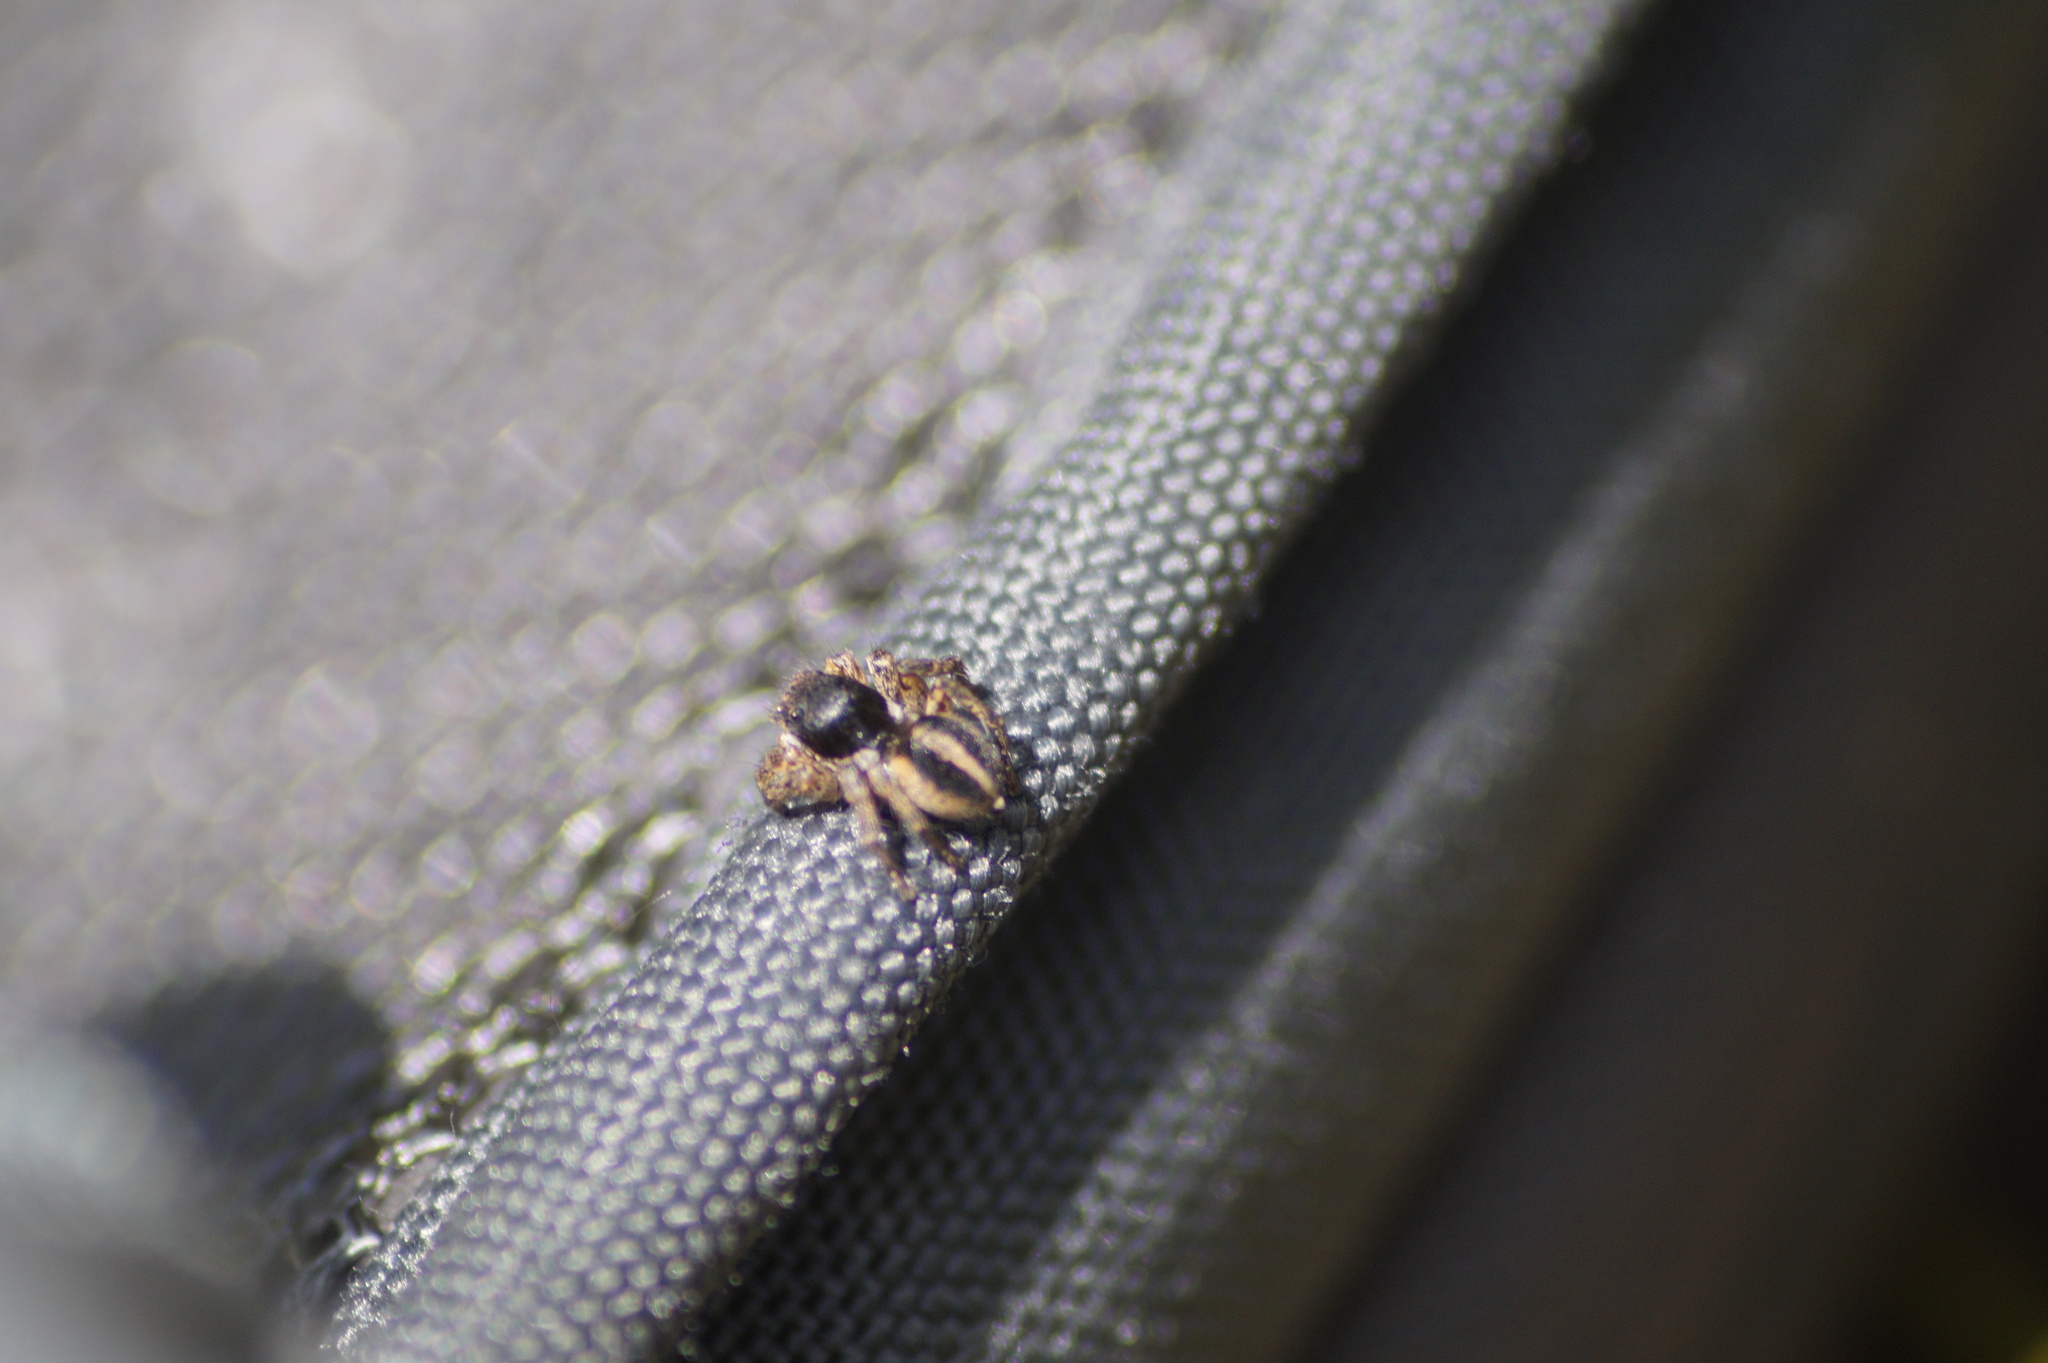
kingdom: Animalia
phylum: Arthropoda
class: Arachnida
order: Araneae
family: Salticidae
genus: Aelurillus
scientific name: Aelurillus v-insignitus
